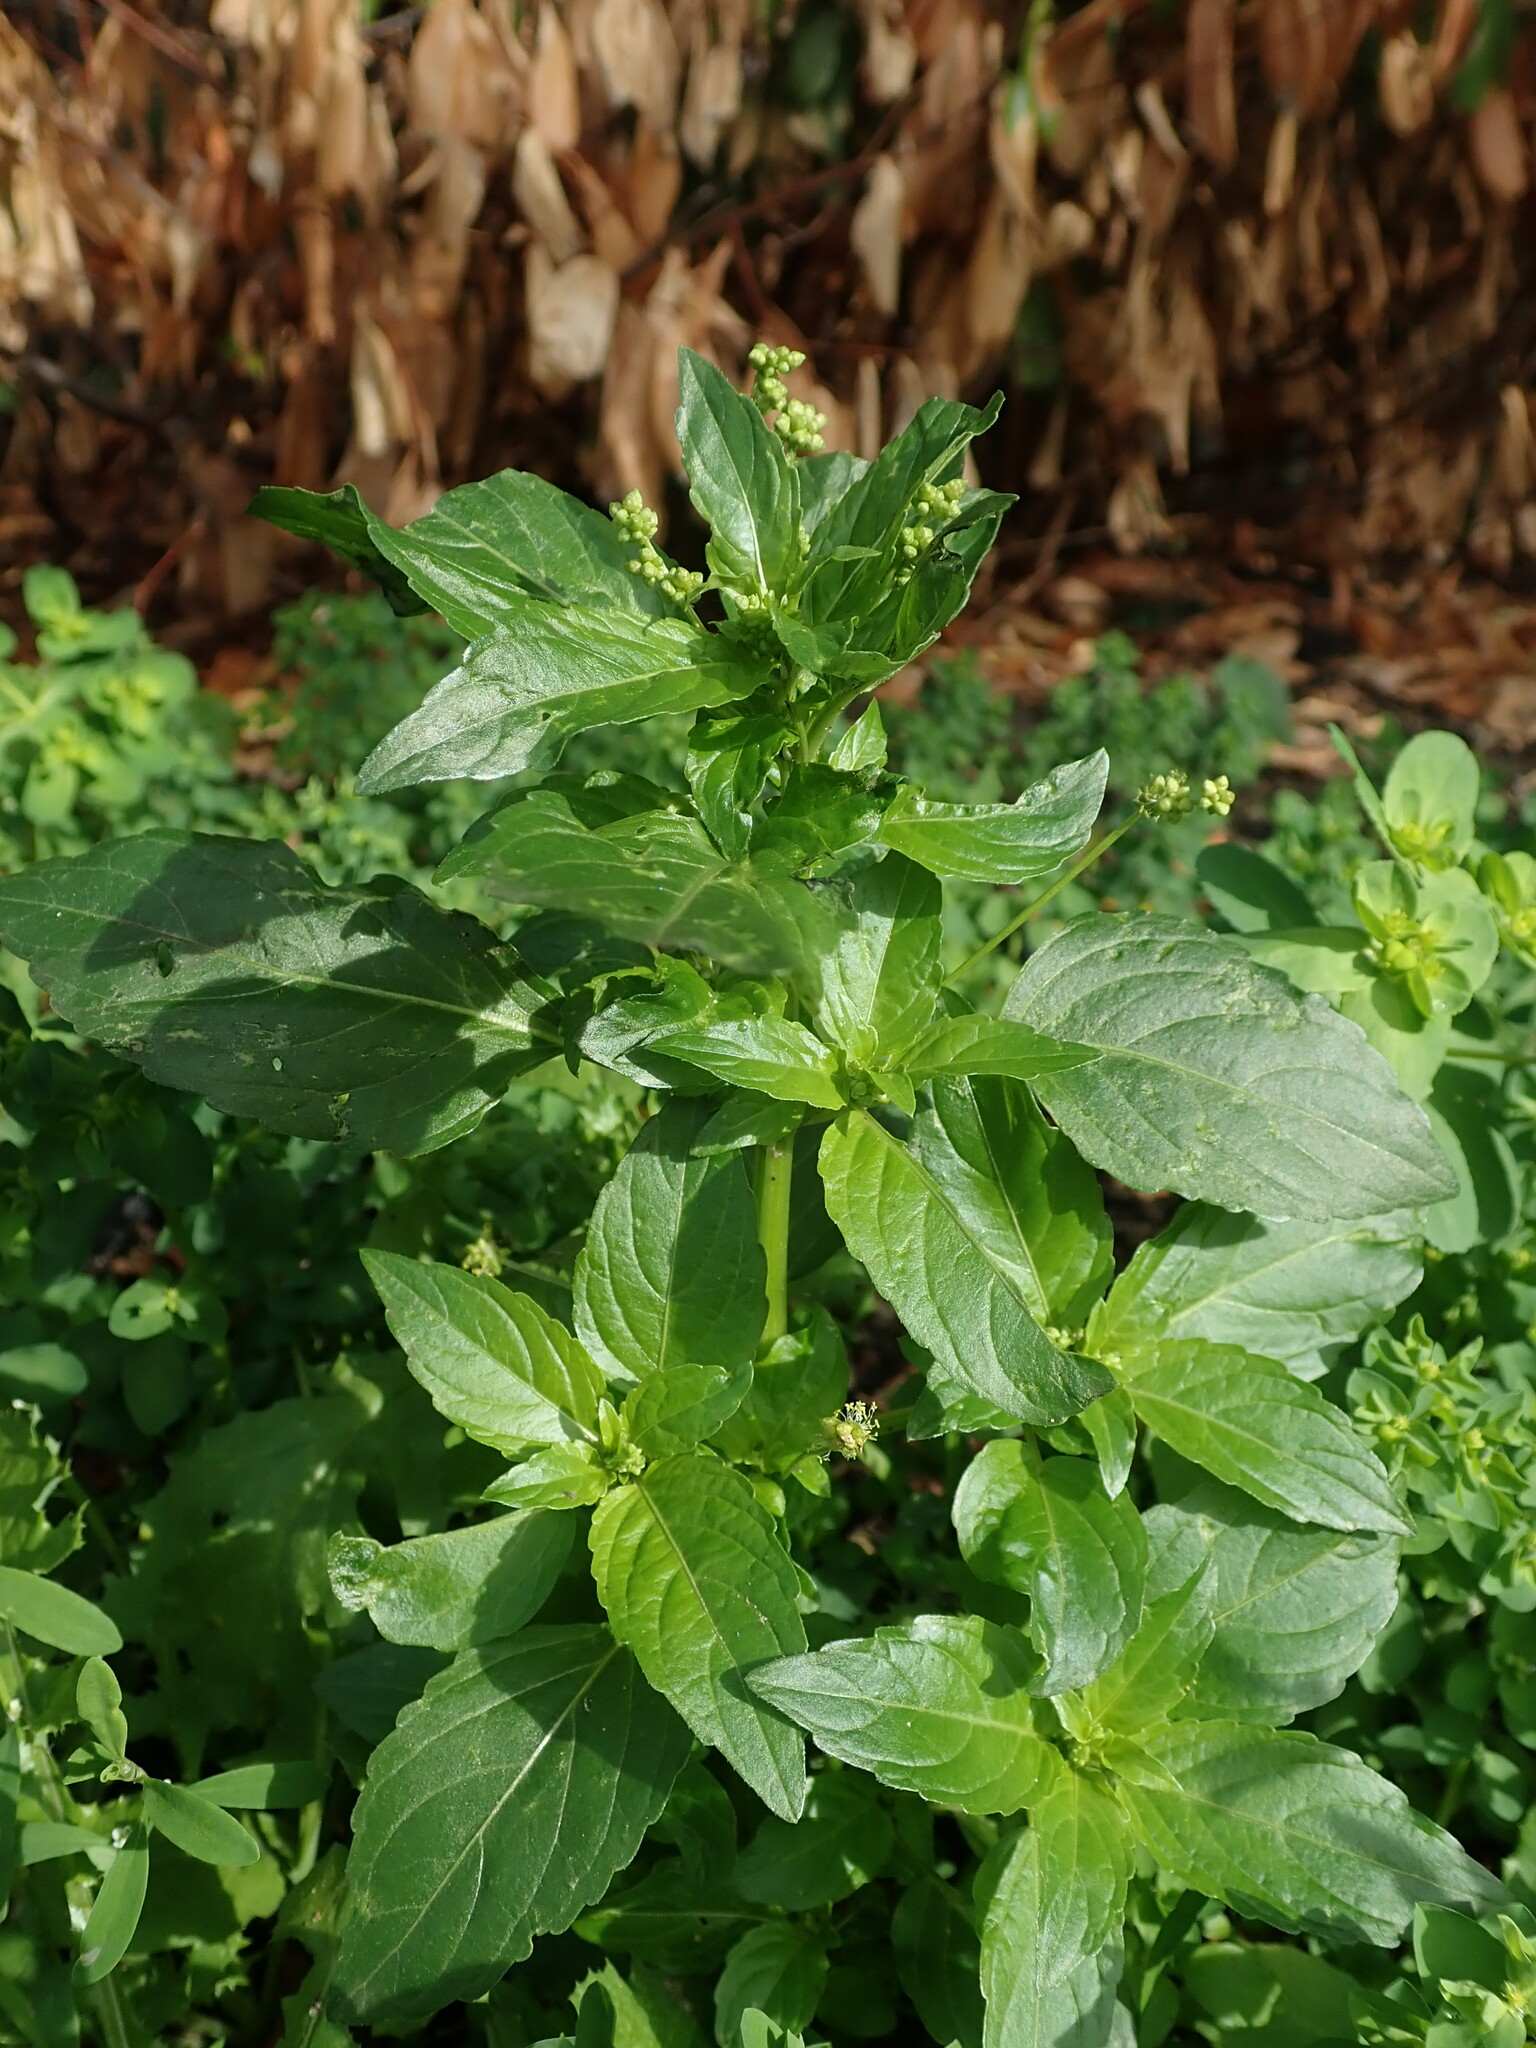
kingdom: Plantae
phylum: Tracheophyta
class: Magnoliopsida
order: Malpighiales
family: Euphorbiaceae
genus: Mercurialis
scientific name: Mercurialis annua
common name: Annual mercury
